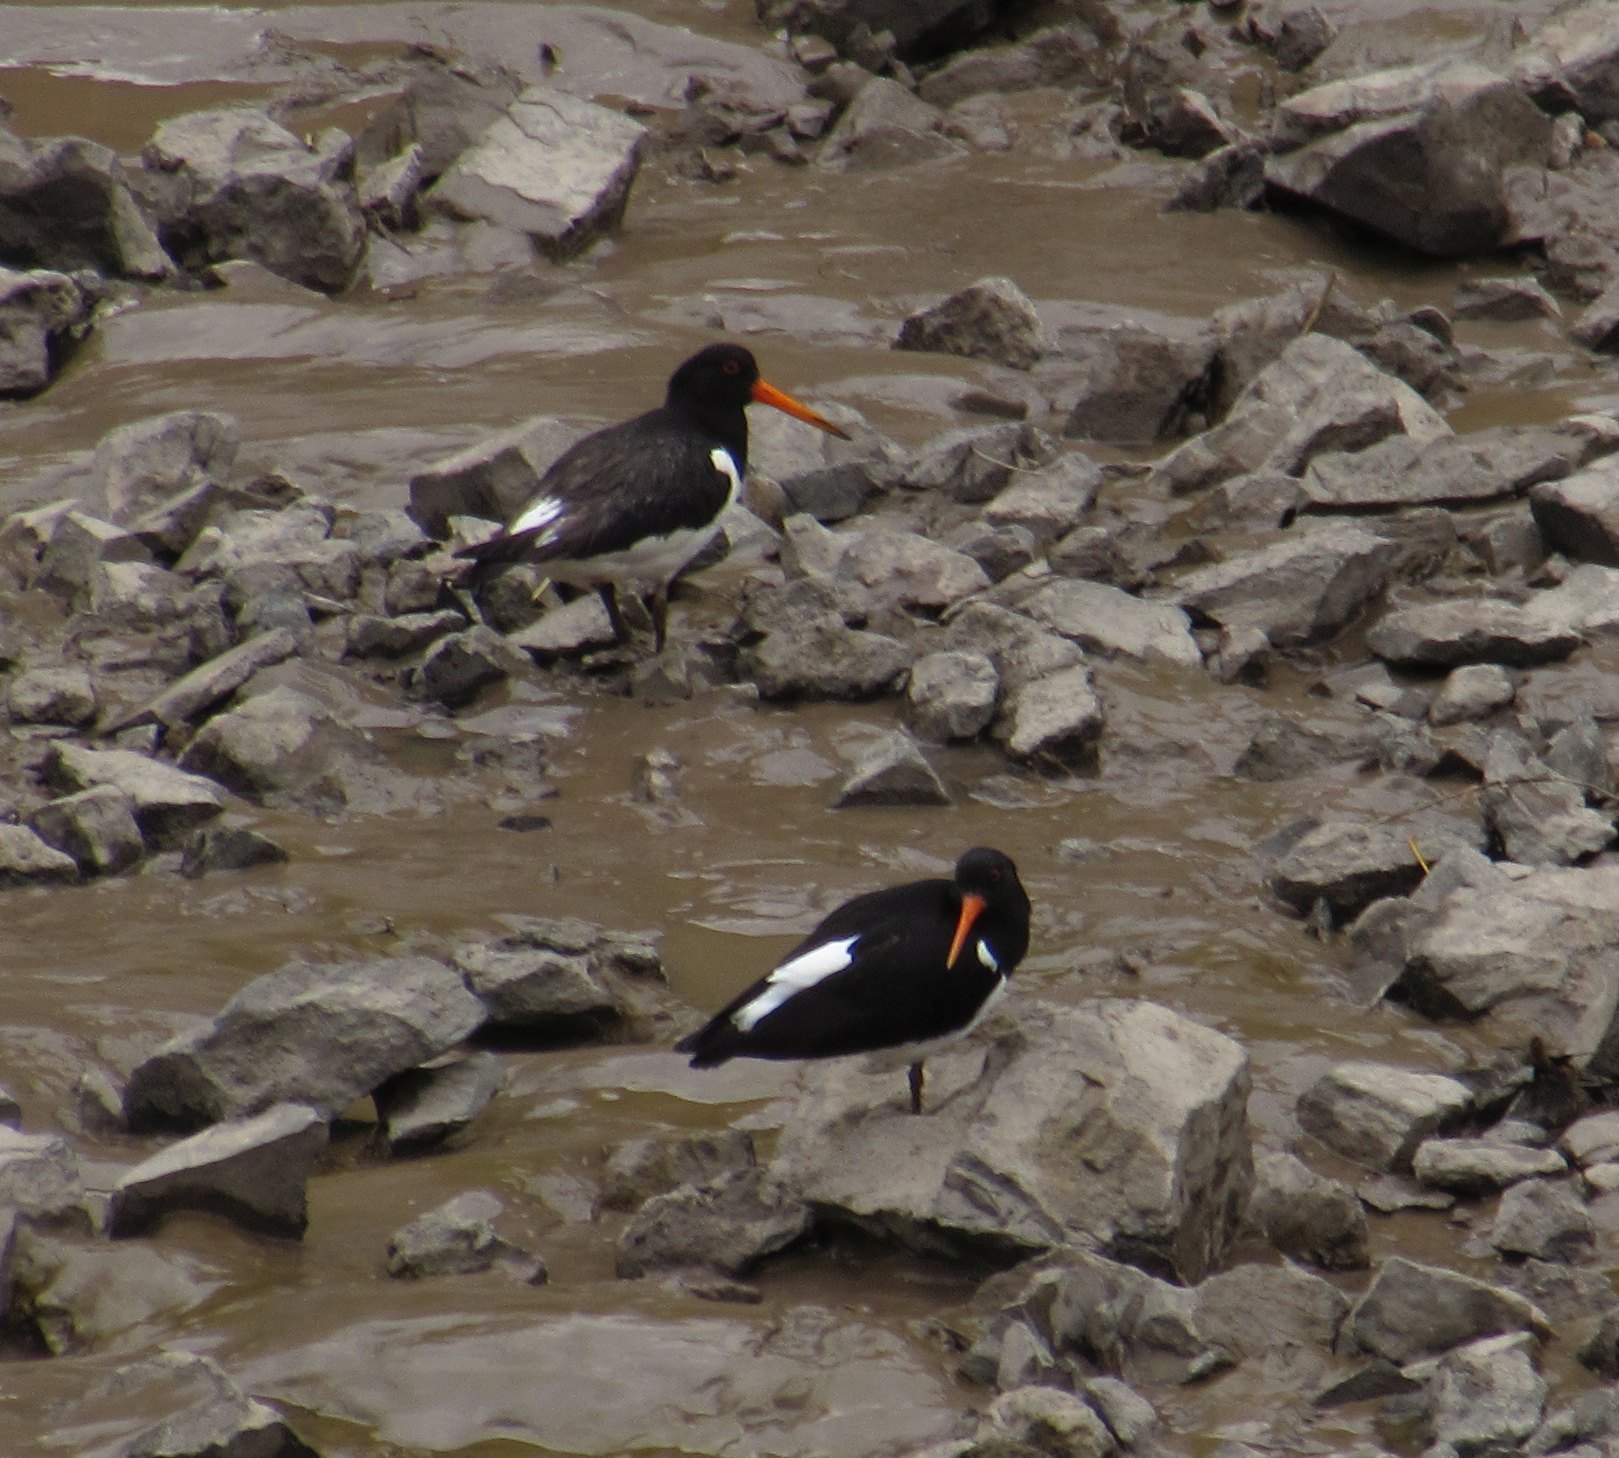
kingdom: Animalia
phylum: Chordata
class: Aves
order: Charadriiformes
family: Haematopodidae
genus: Haematopus
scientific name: Haematopus ostralegus
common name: Eurasian oystercatcher
